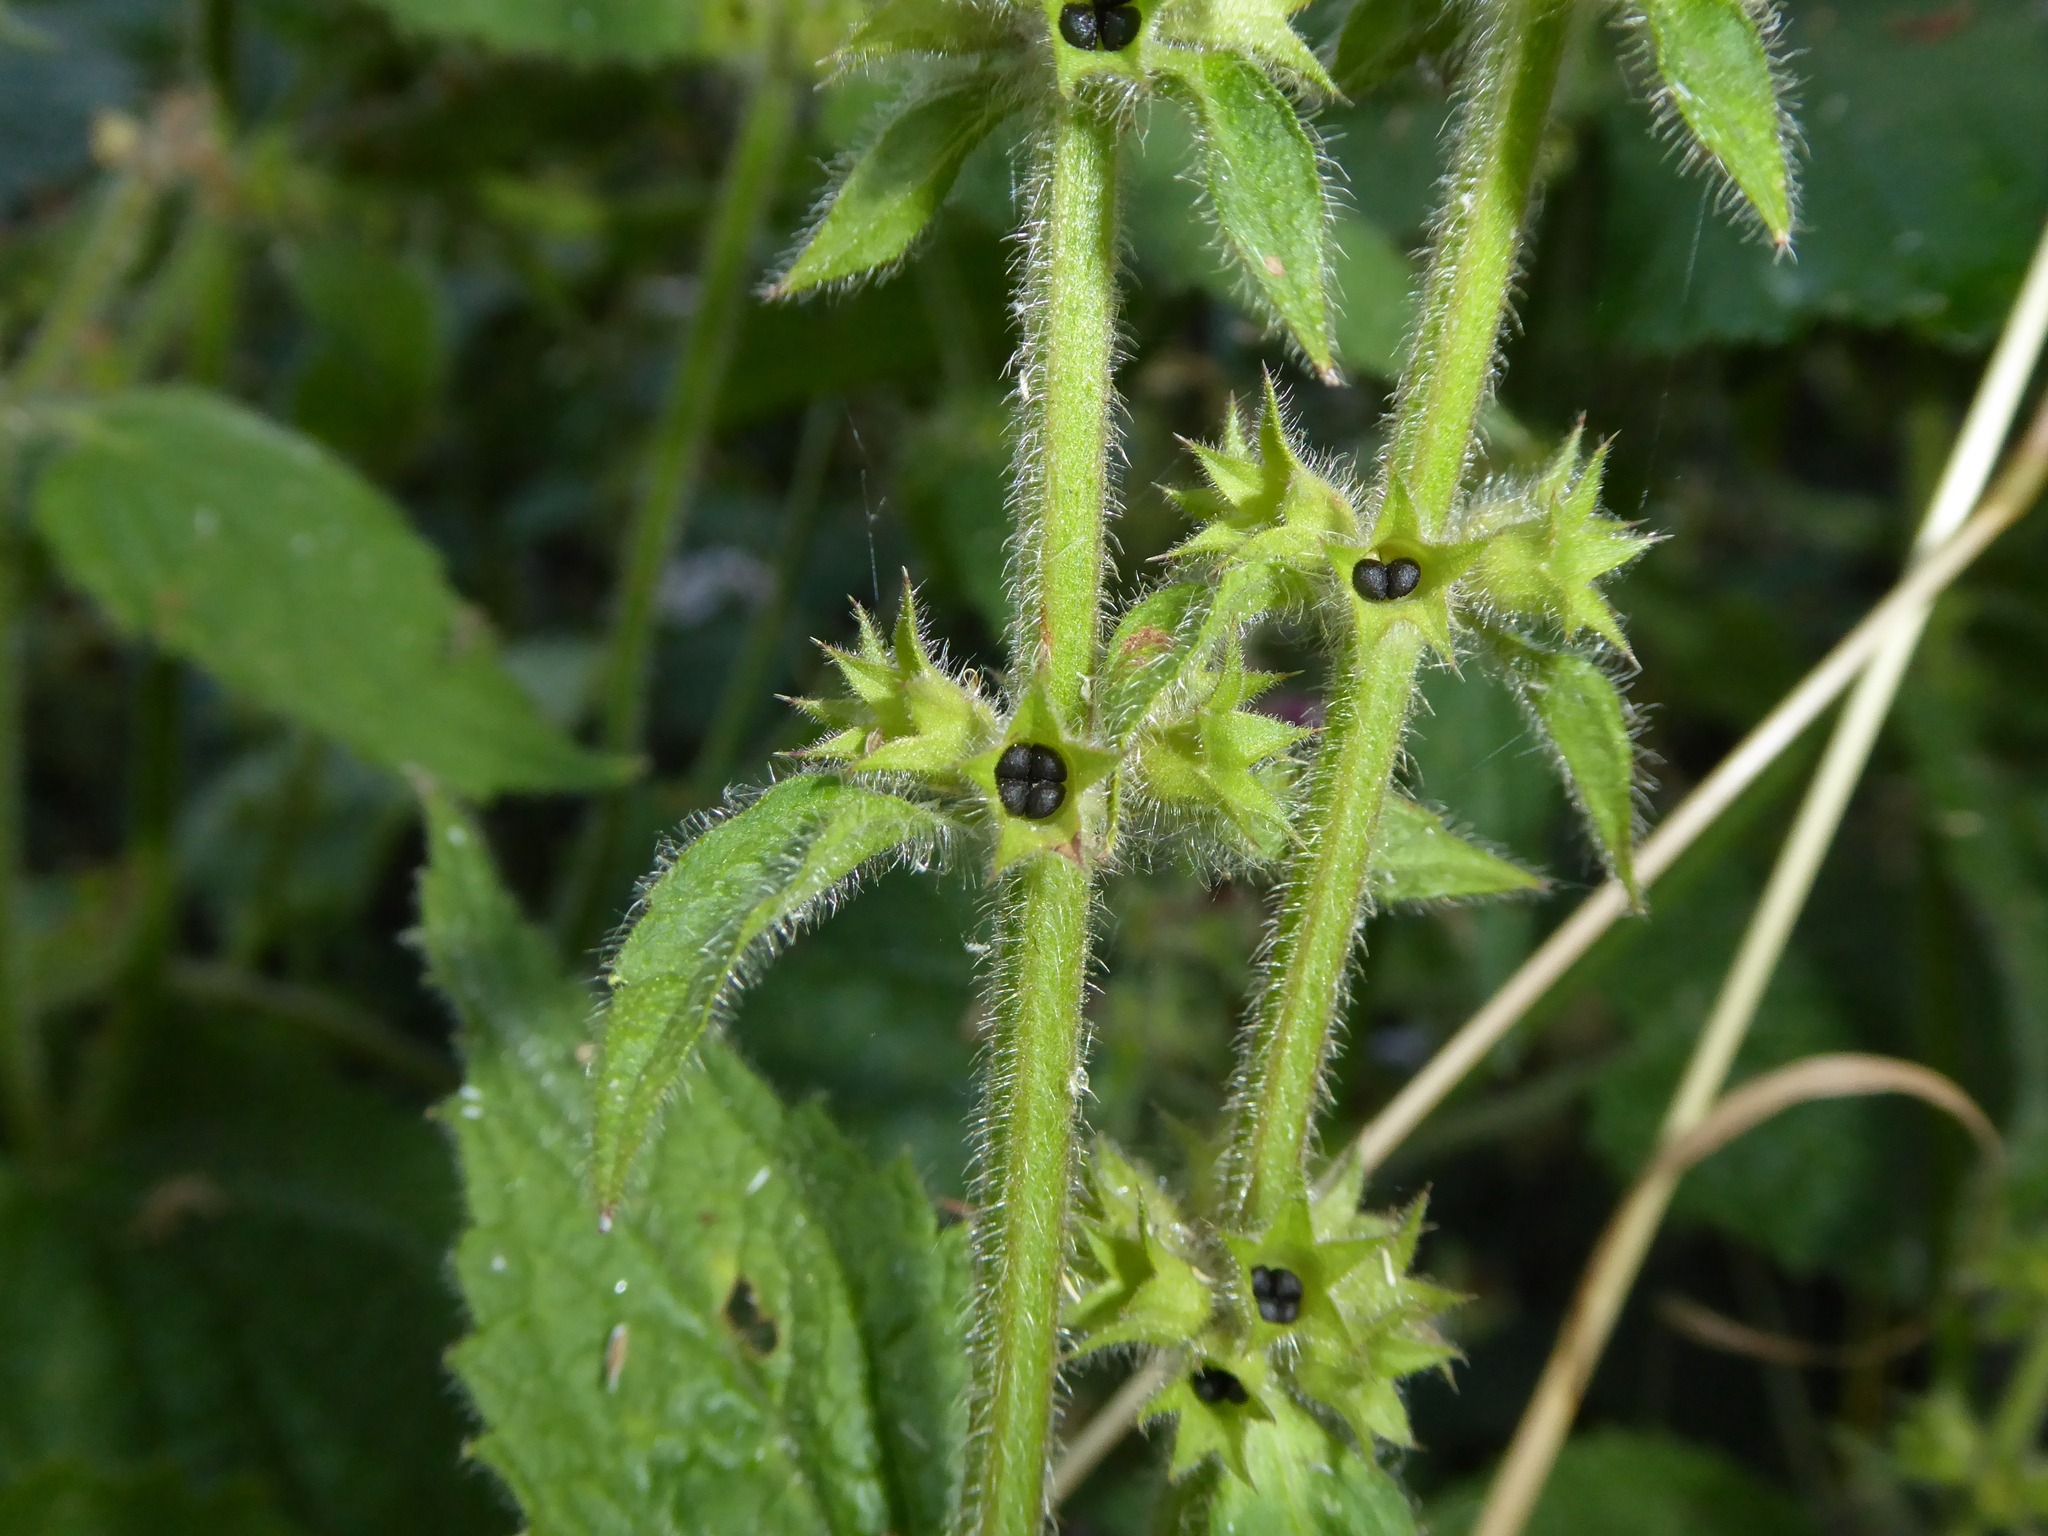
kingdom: Plantae
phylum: Tracheophyta
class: Magnoliopsida
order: Lamiales
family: Lamiaceae
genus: Stachys
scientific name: Stachys sylvatica
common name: Hedge woundwort
